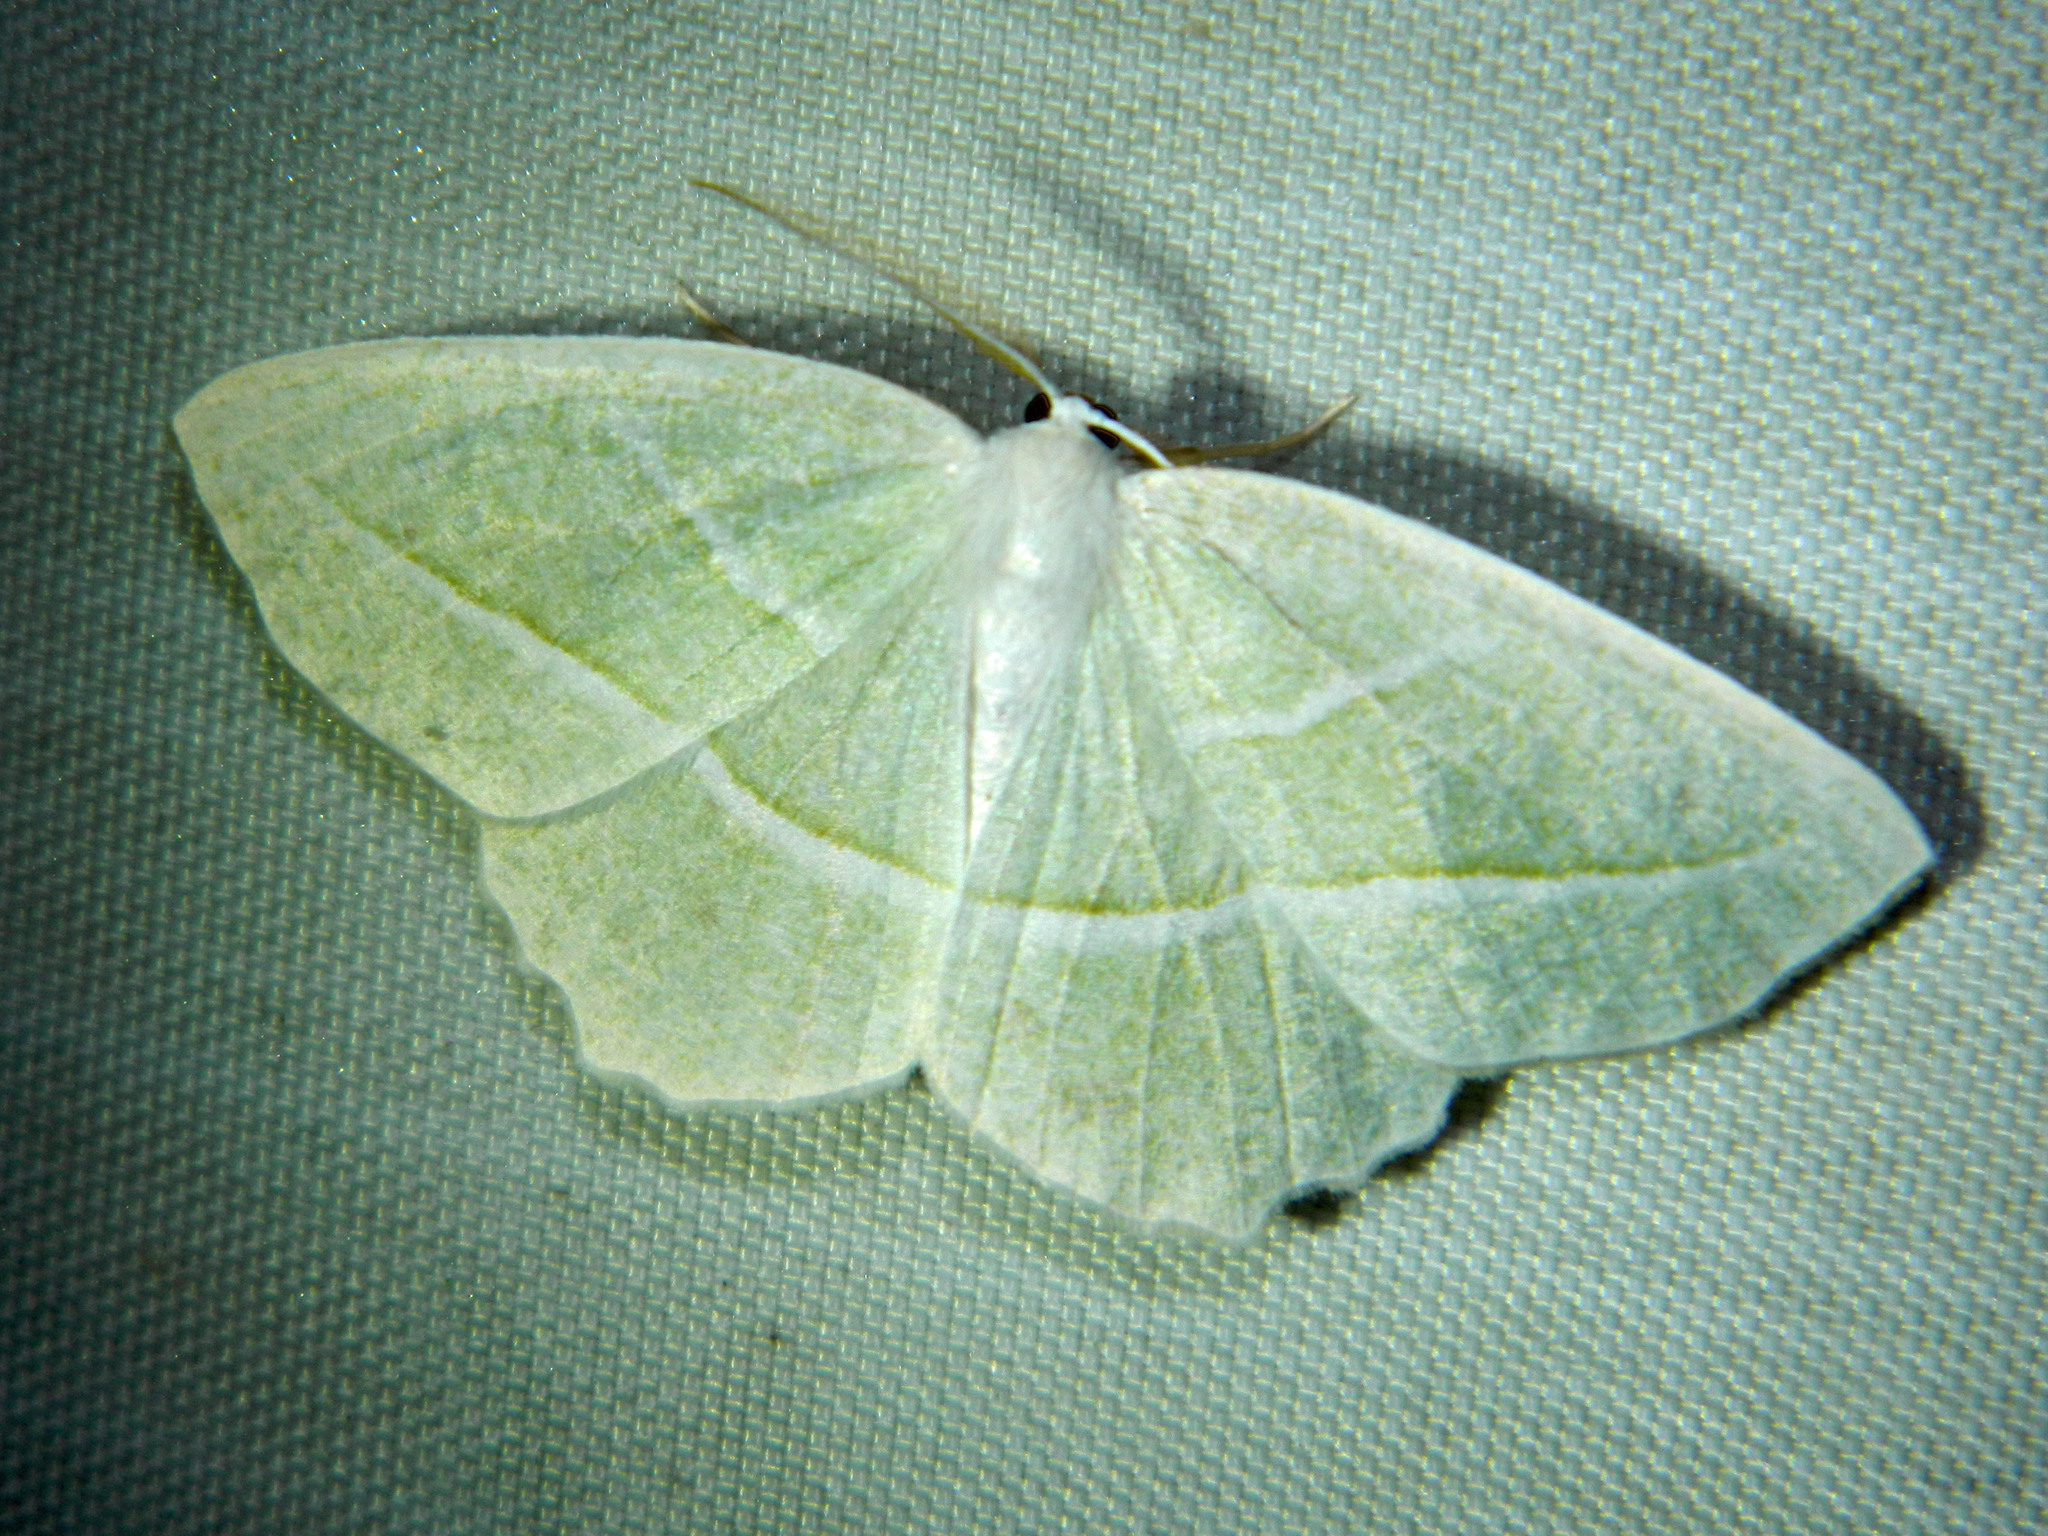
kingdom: Animalia
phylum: Arthropoda
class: Insecta
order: Lepidoptera
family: Geometridae
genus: Campaea
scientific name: Campaea perlata
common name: Fringed looper
